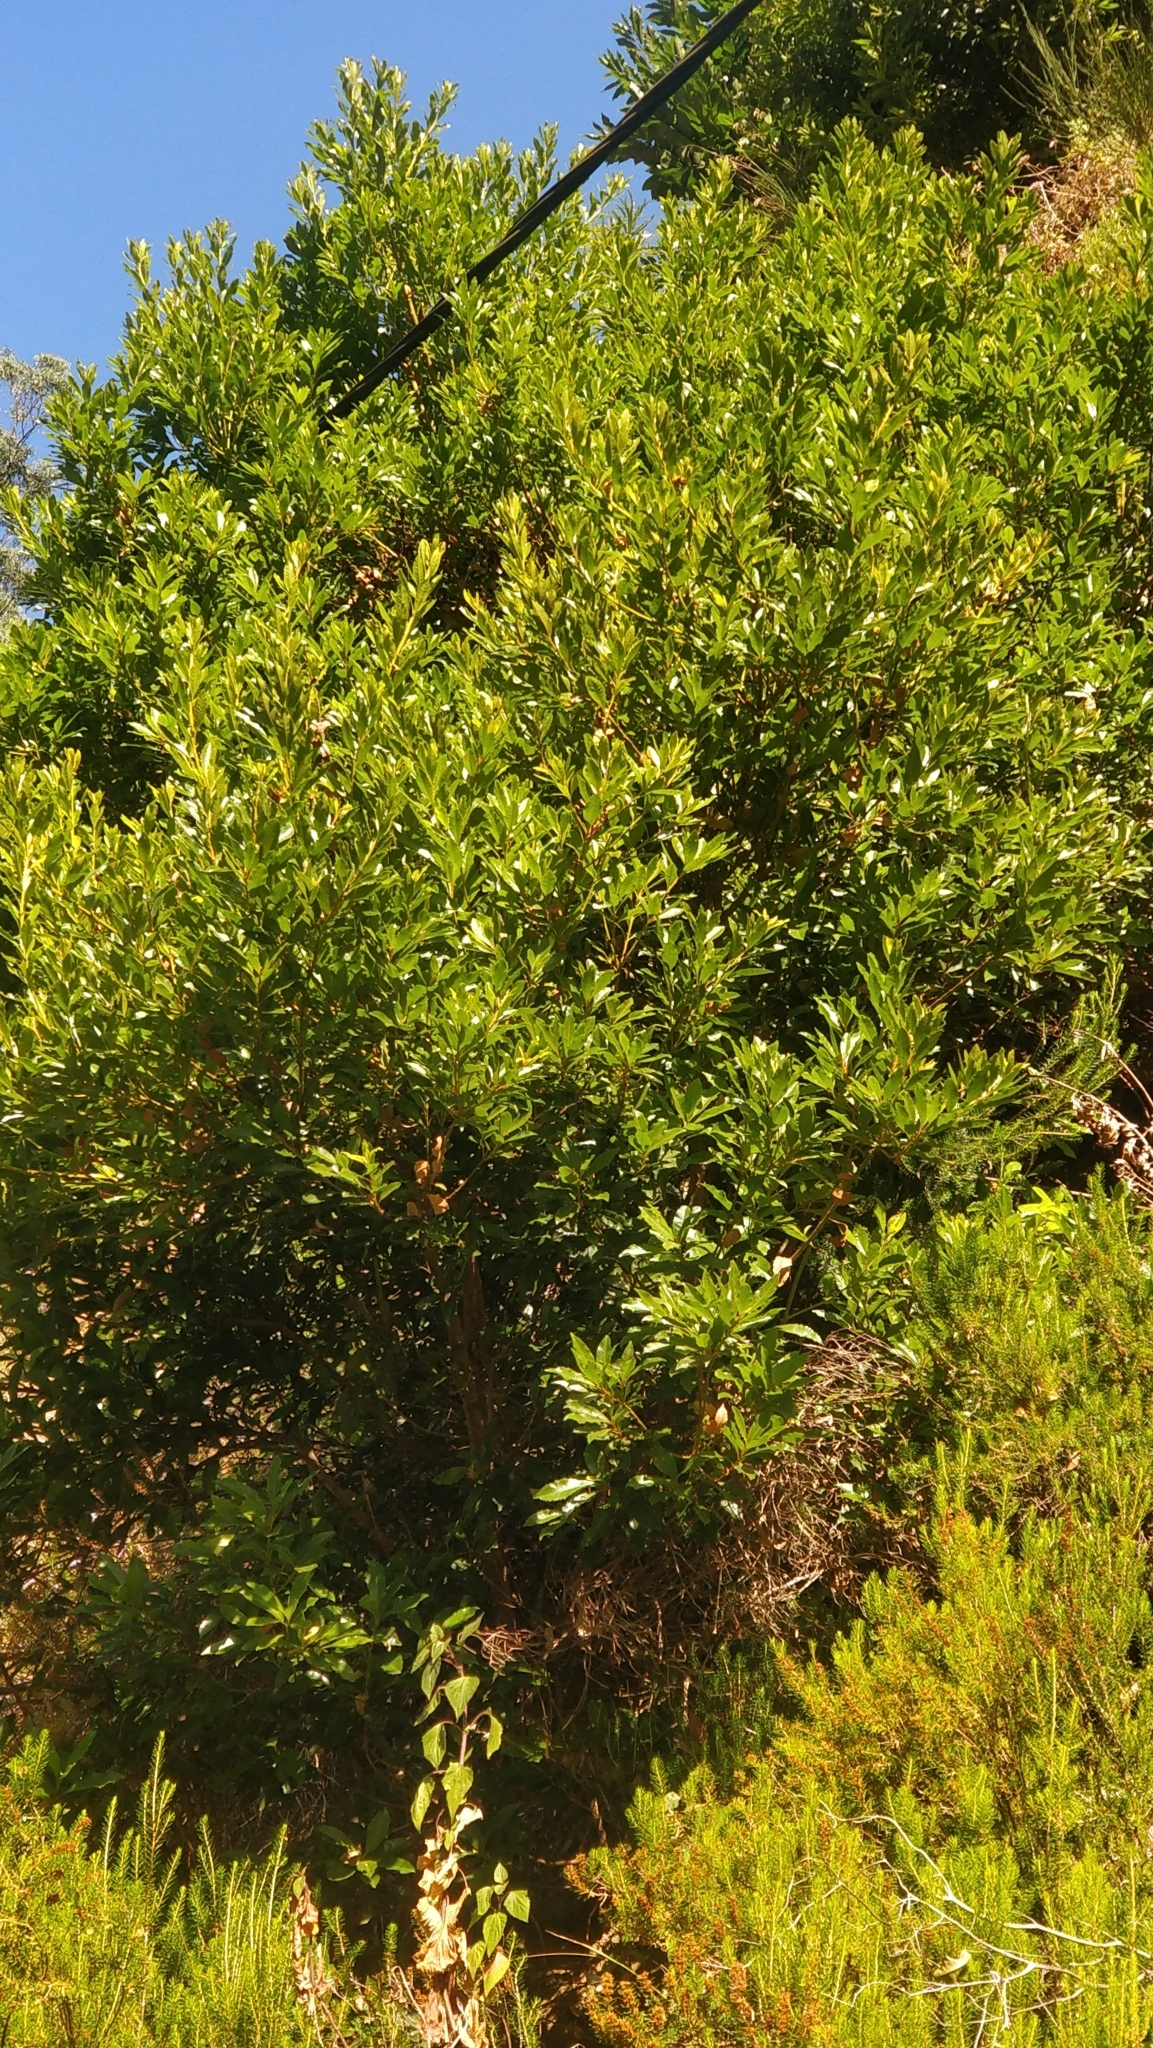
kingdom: Plantae
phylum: Tracheophyta
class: Magnoliopsida
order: Fagales
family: Myricaceae
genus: Morella
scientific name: Morella faya
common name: Firetree
